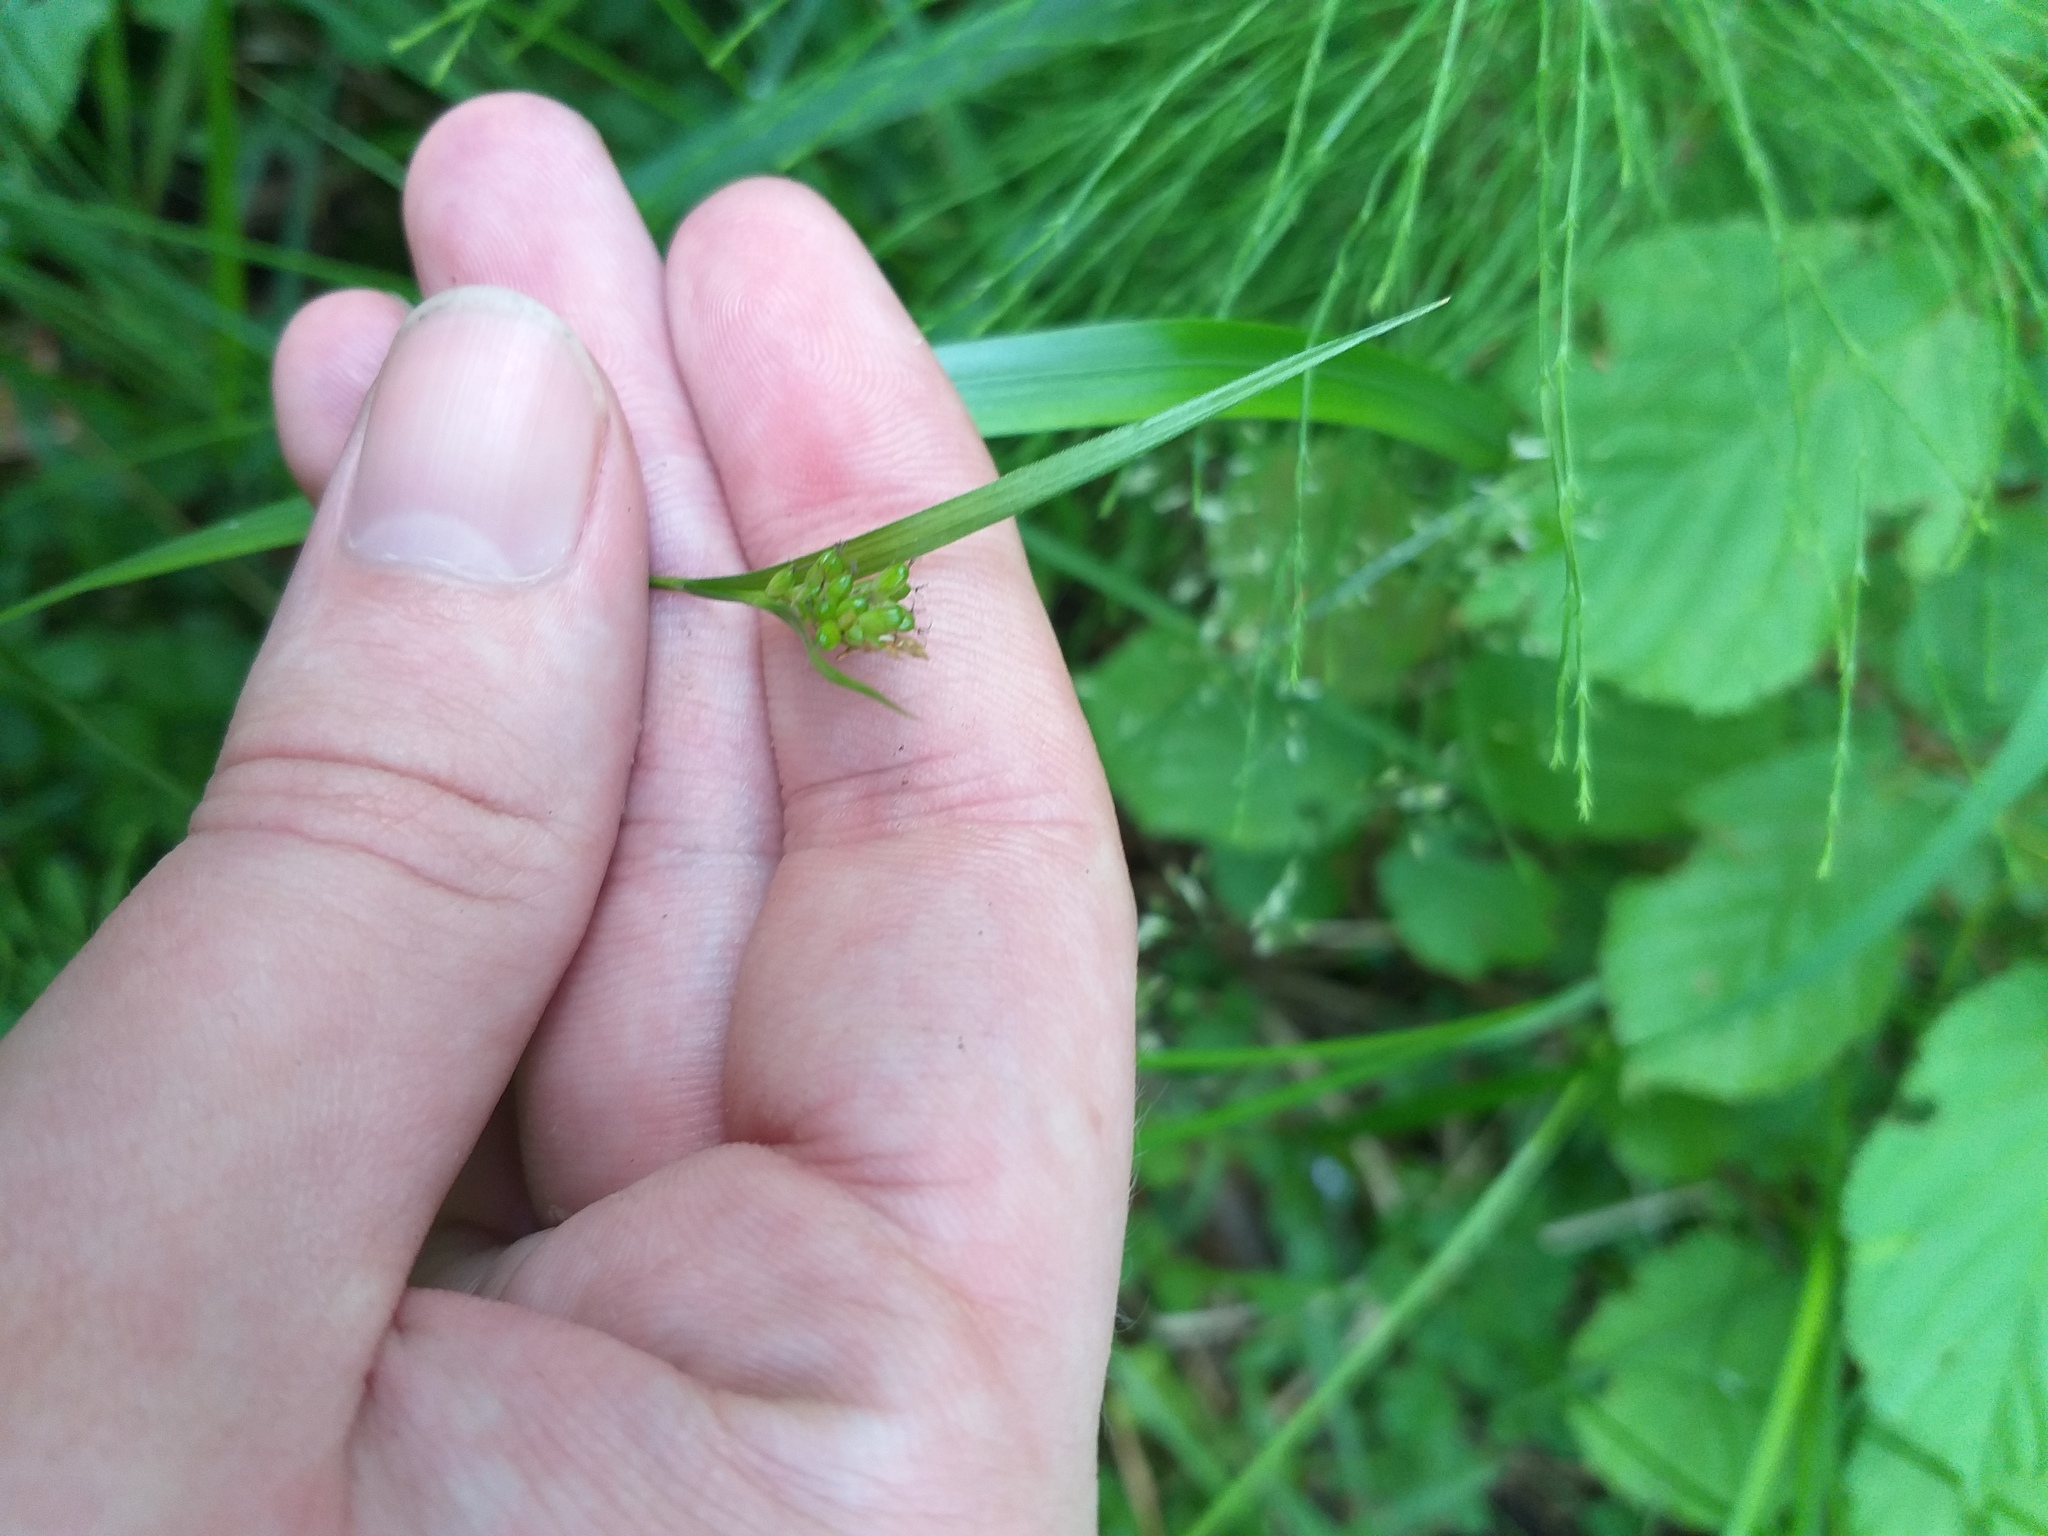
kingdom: Plantae
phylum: Tracheophyta
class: Liliopsida
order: Poales
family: Cyperaceae
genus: Carex
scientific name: Carex pallescens
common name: Pale sedge
